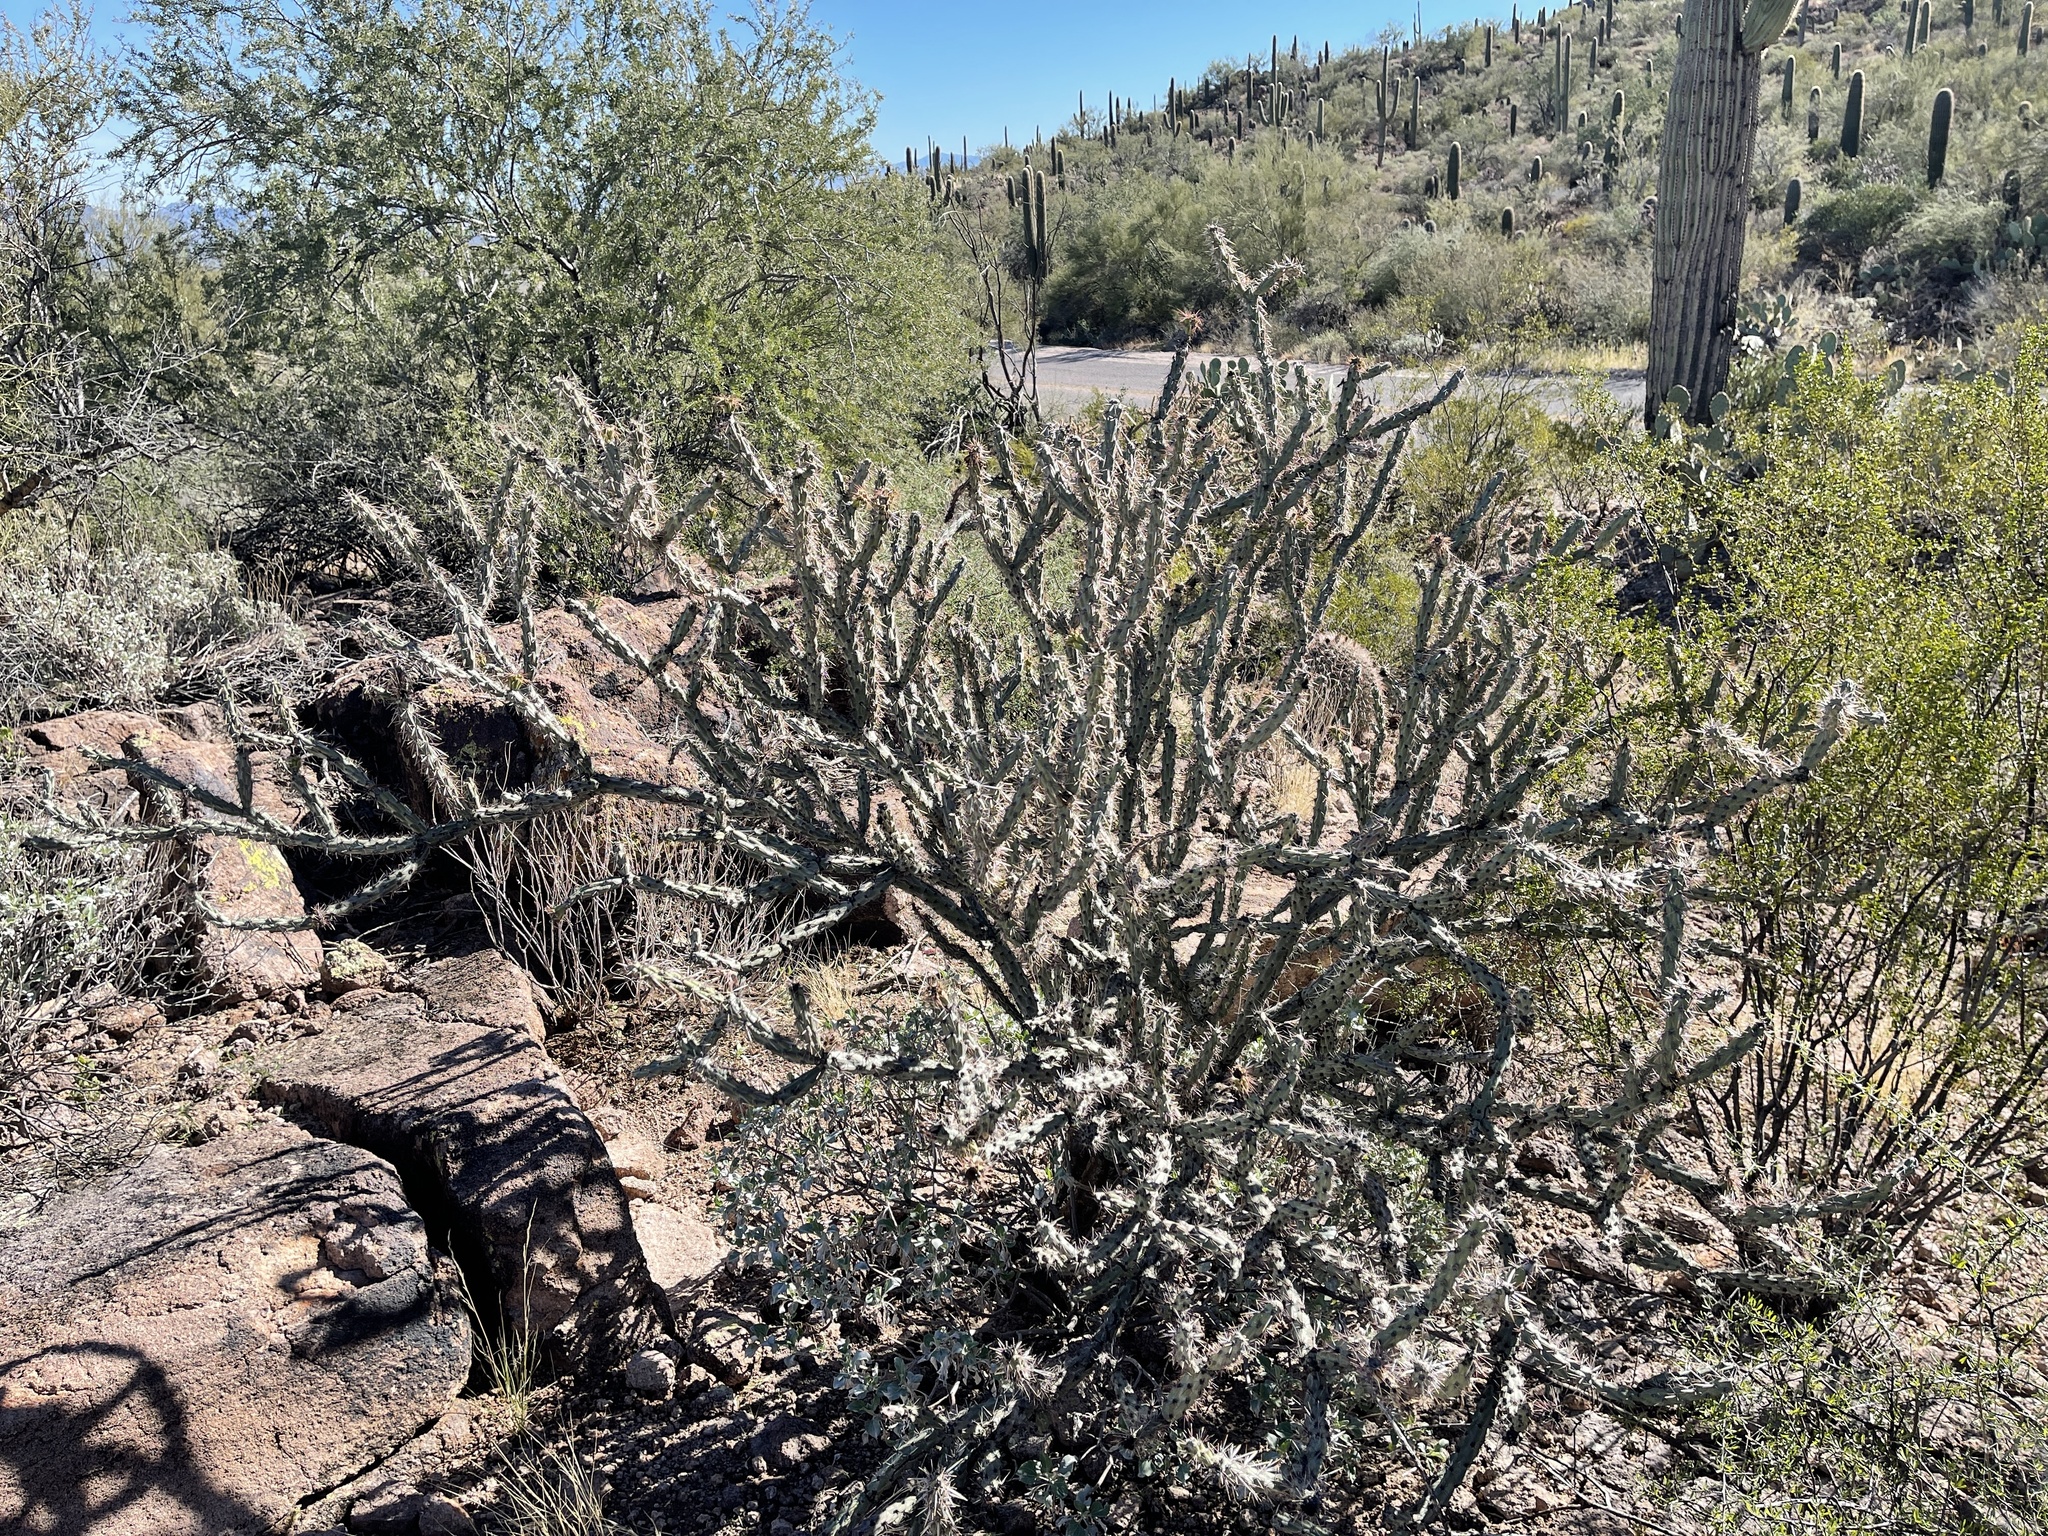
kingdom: Plantae
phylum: Tracheophyta
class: Magnoliopsida
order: Caryophyllales
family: Cactaceae
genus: Cylindropuntia
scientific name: Cylindropuntia acanthocarpa
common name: Buckhorn cholla
